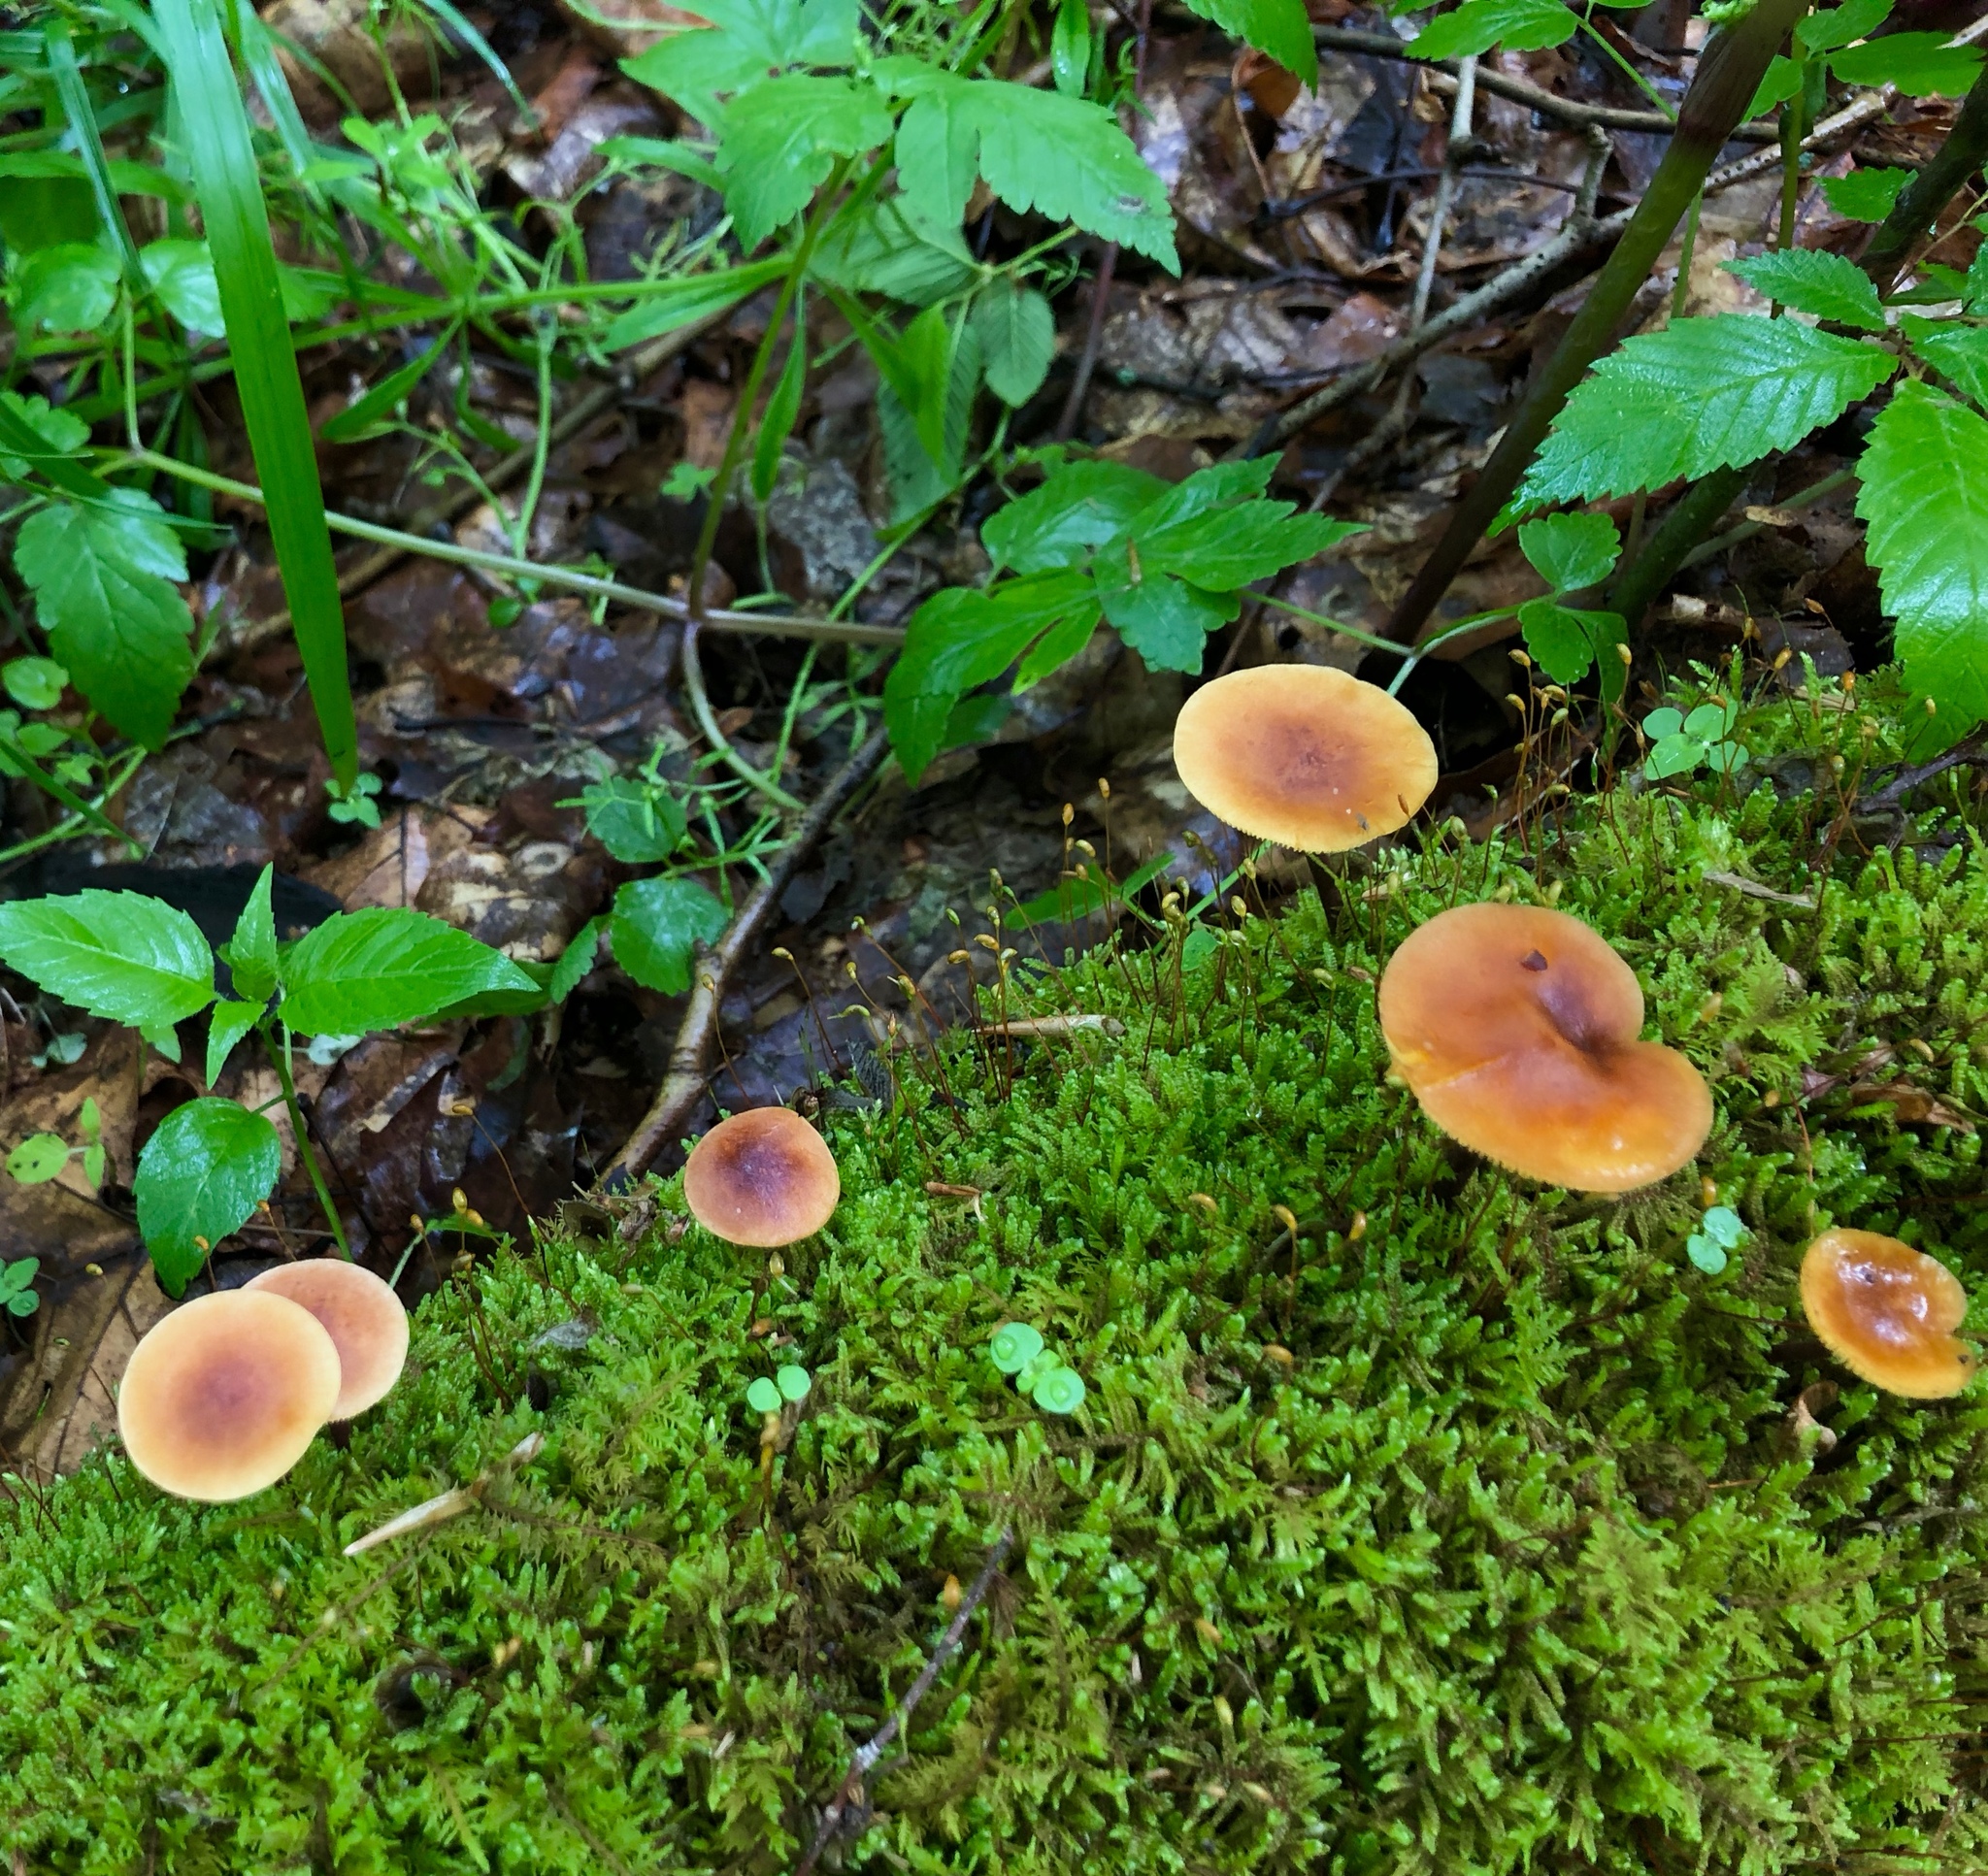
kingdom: Fungi
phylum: Basidiomycota
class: Agaricomycetes
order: Agaricales
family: Mycenaceae
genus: Xeromphalina
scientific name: Xeromphalina tenuipes
